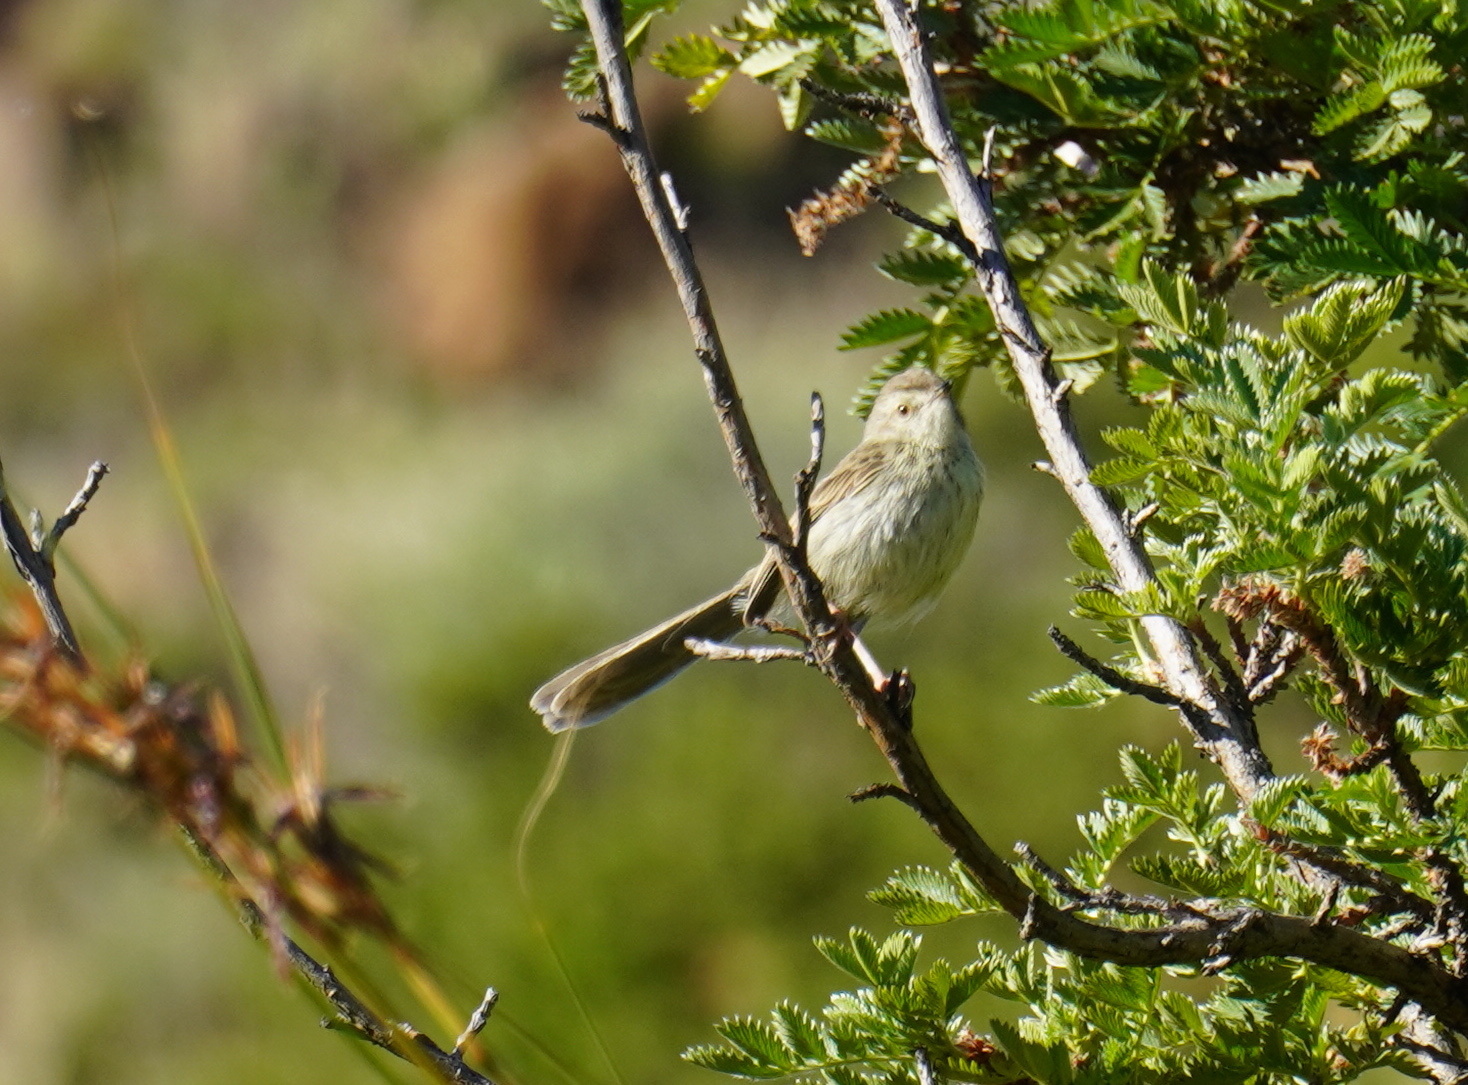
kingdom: Animalia
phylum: Chordata
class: Aves
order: Passeriformes
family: Cisticolidae
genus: Prinia
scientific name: Prinia hypoxantha
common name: Drakensberg prinia
